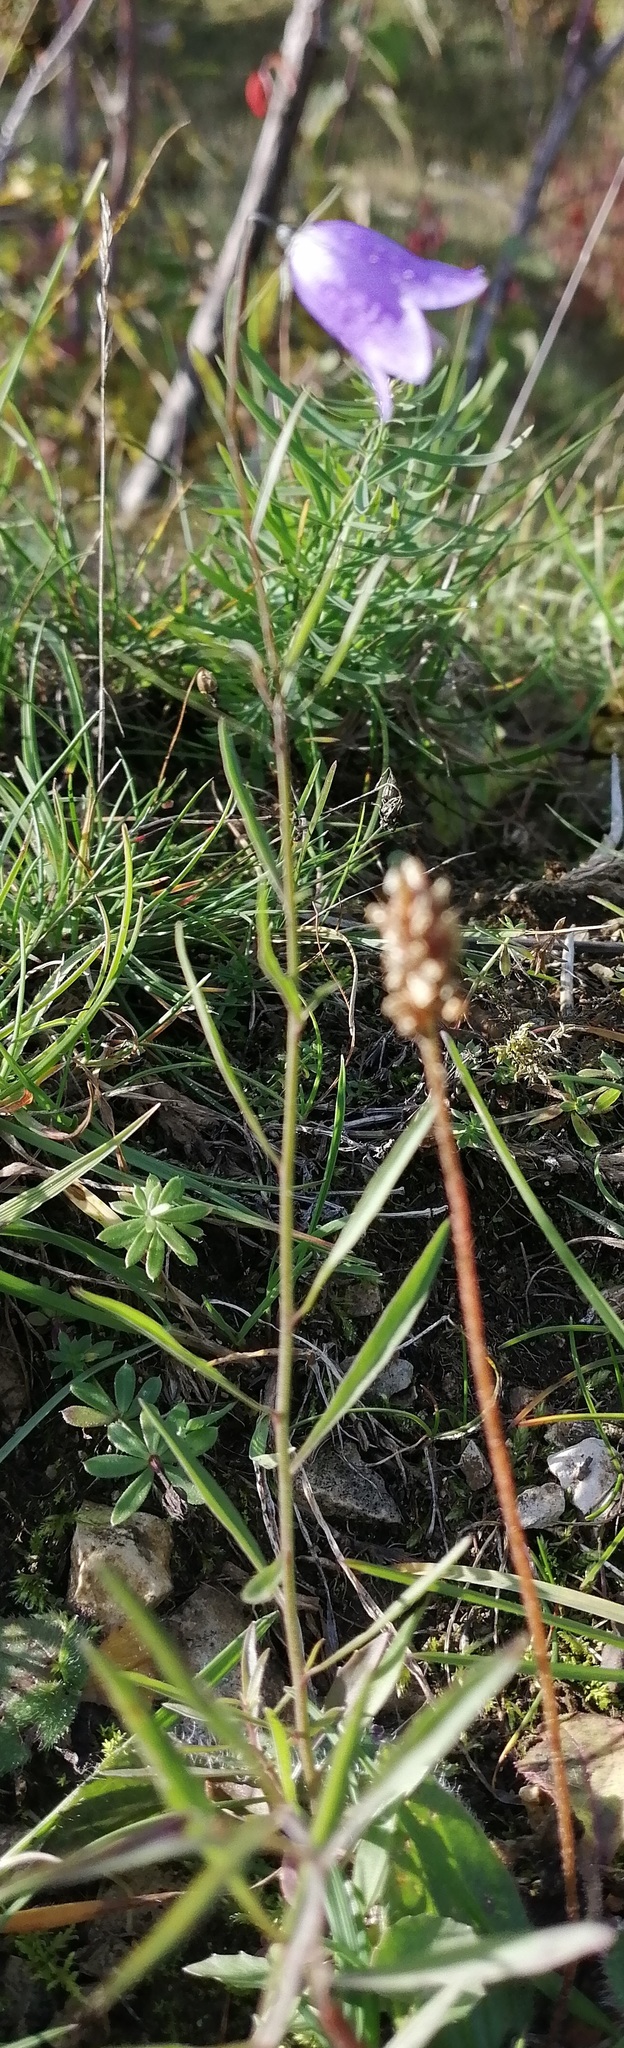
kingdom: Plantae
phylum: Tracheophyta
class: Magnoliopsida
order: Asterales
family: Campanulaceae
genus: Campanula
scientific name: Campanula rotundifolia
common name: Harebell
